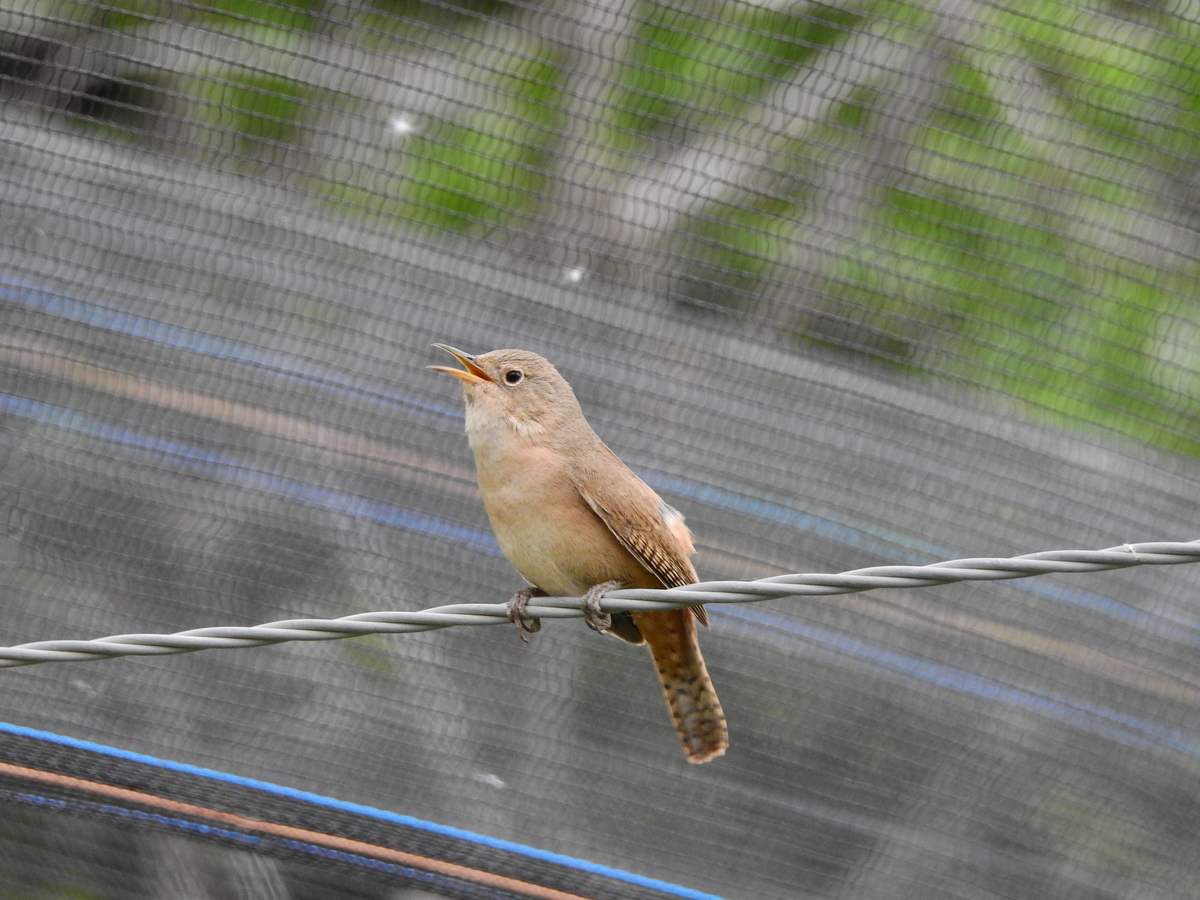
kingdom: Animalia
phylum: Chordata
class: Aves
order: Passeriformes
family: Troglodytidae
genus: Troglodytes
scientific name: Troglodytes aedon
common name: House wren
